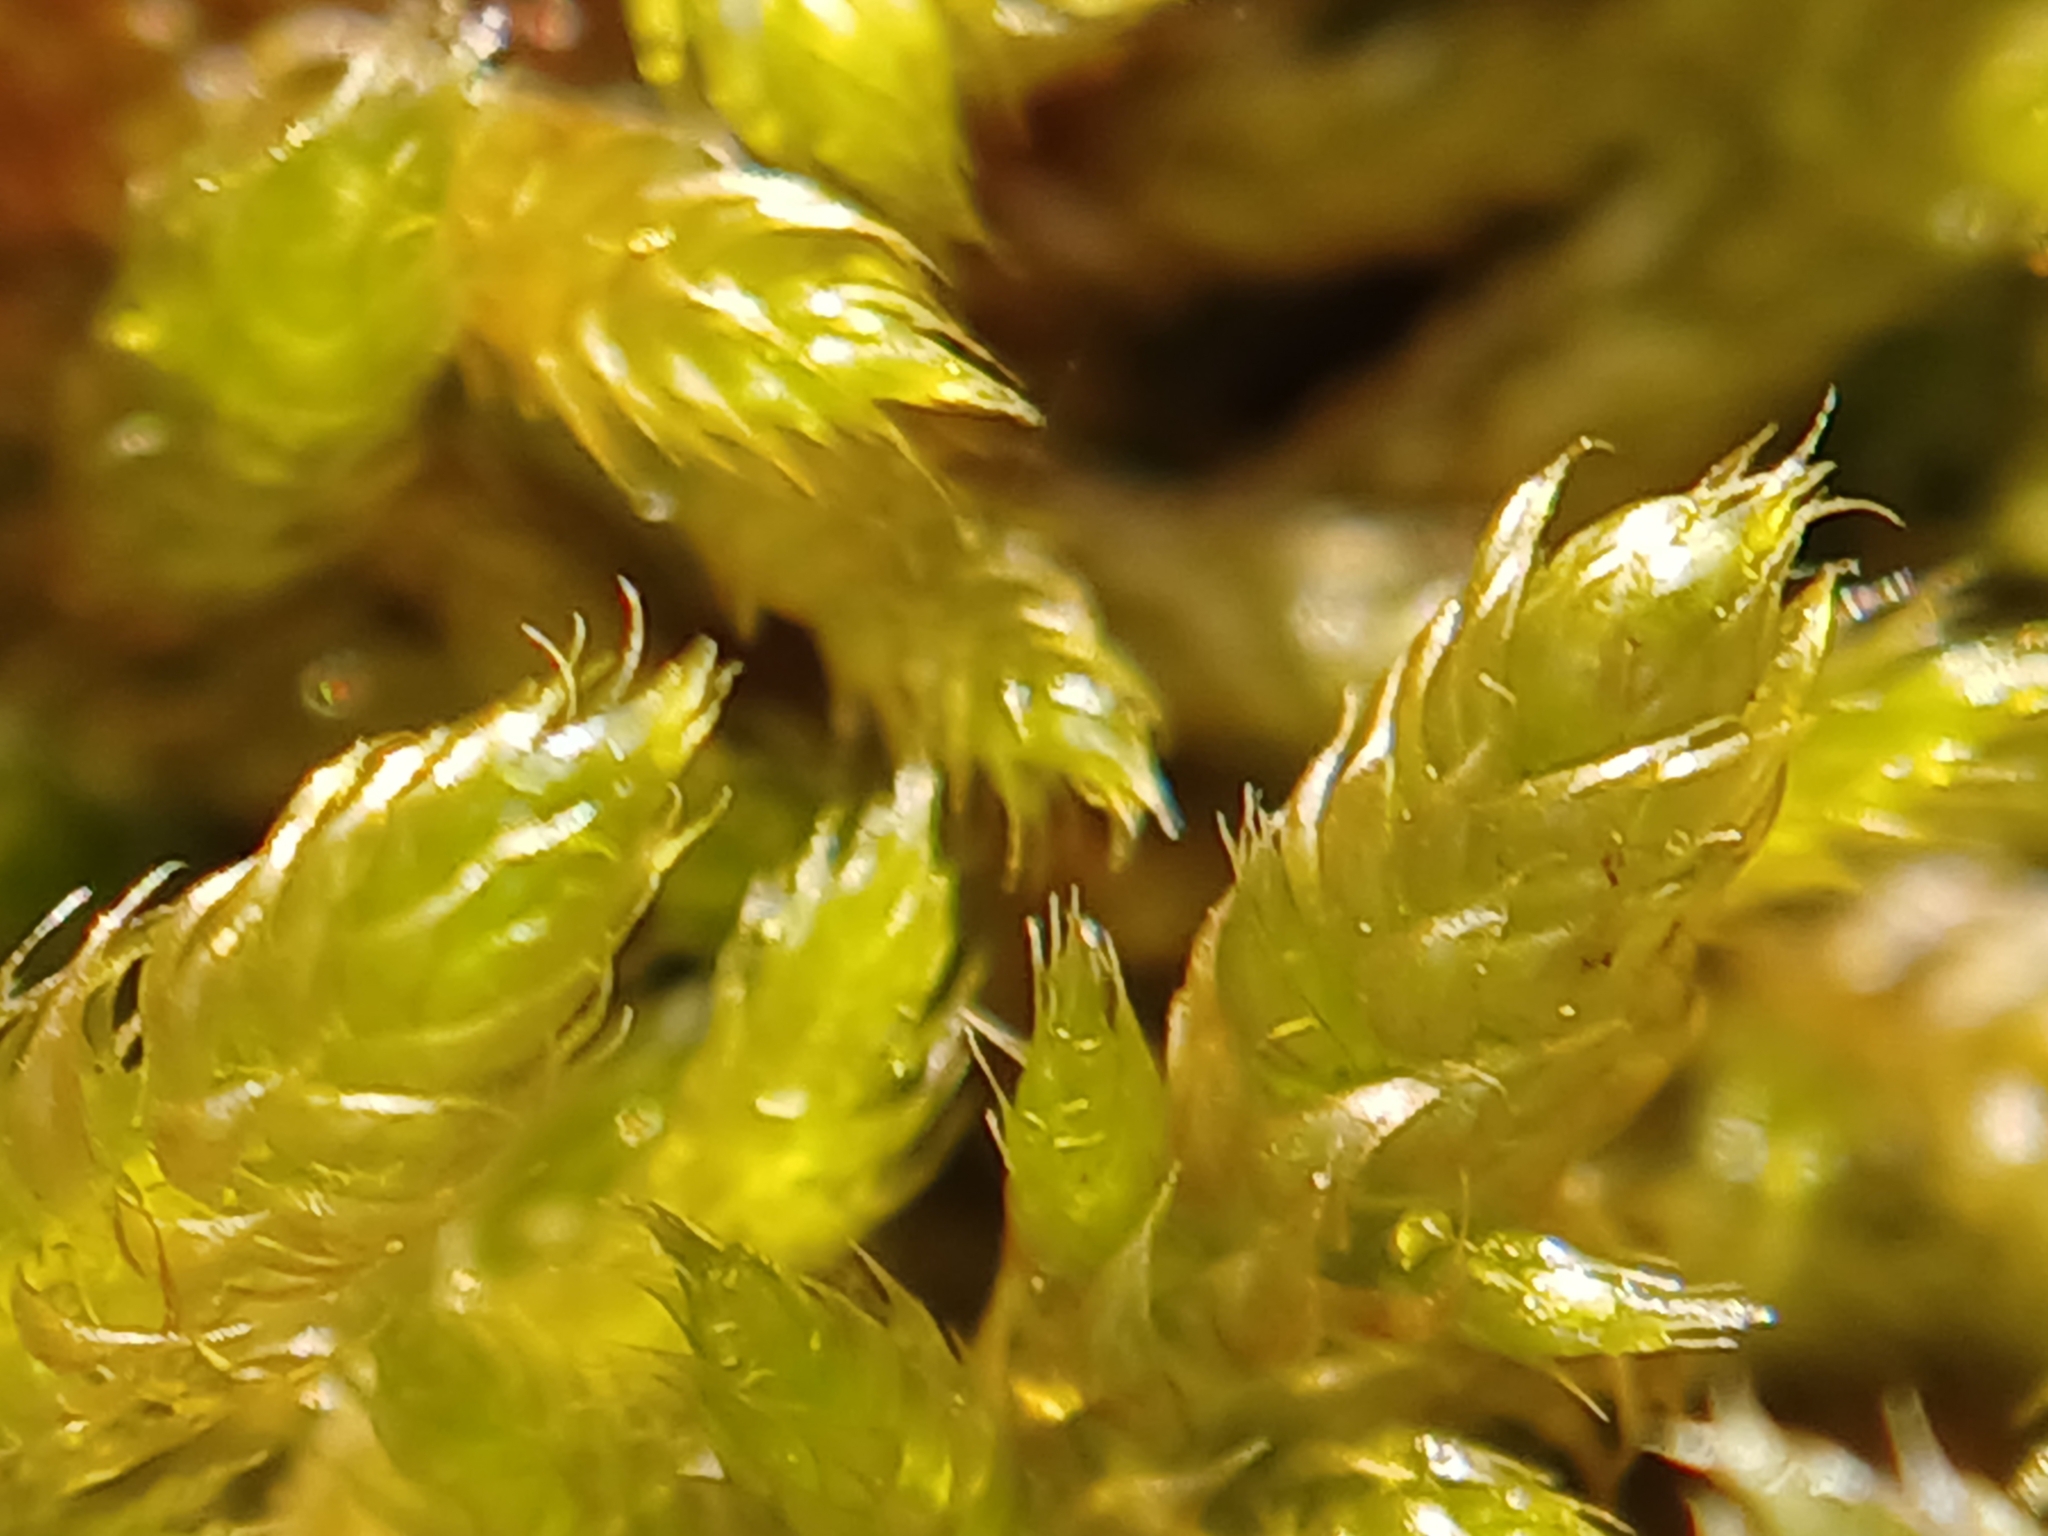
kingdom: Plantae
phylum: Bryophyta
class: Bryopsida
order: Hypnales
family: Hypnaceae
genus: Hypnum
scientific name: Hypnum cupressiforme
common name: Cypress-leaved plait-moss
